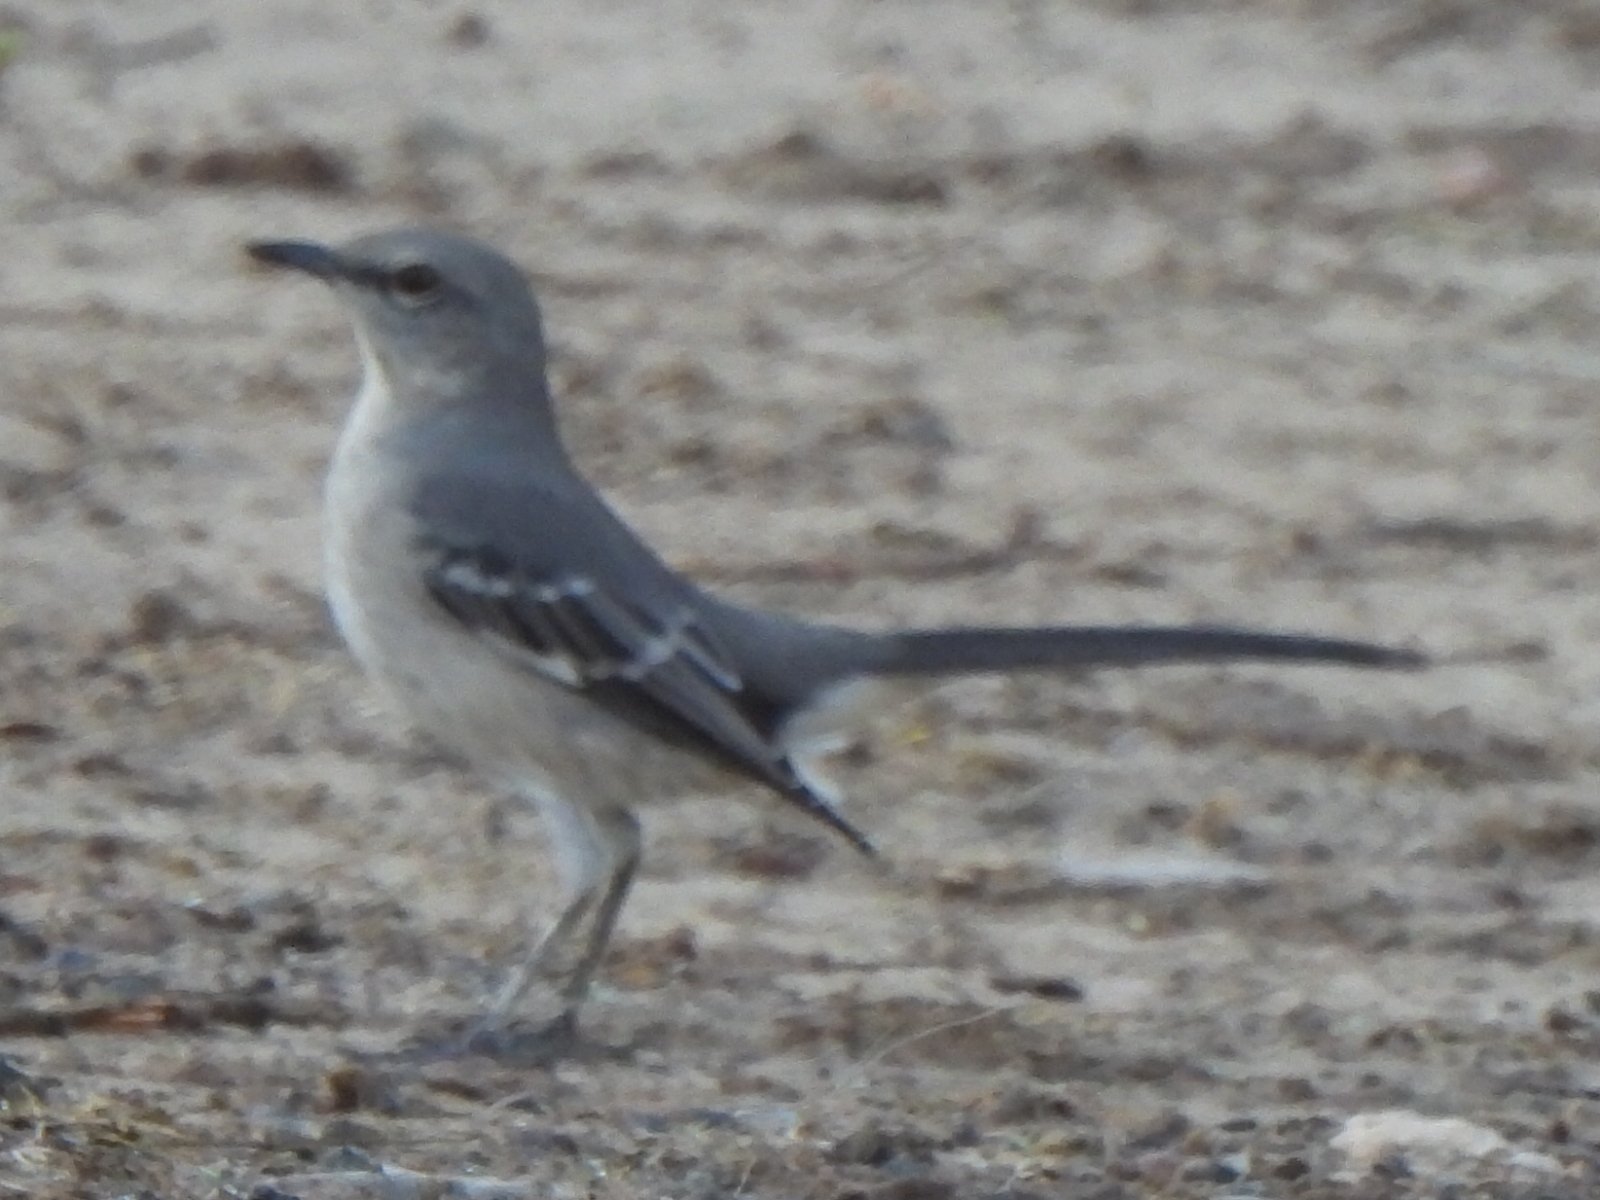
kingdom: Animalia
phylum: Chordata
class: Aves
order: Passeriformes
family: Mimidae
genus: Mimus
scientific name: Mimus polyglottos
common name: Northern mockingbird
